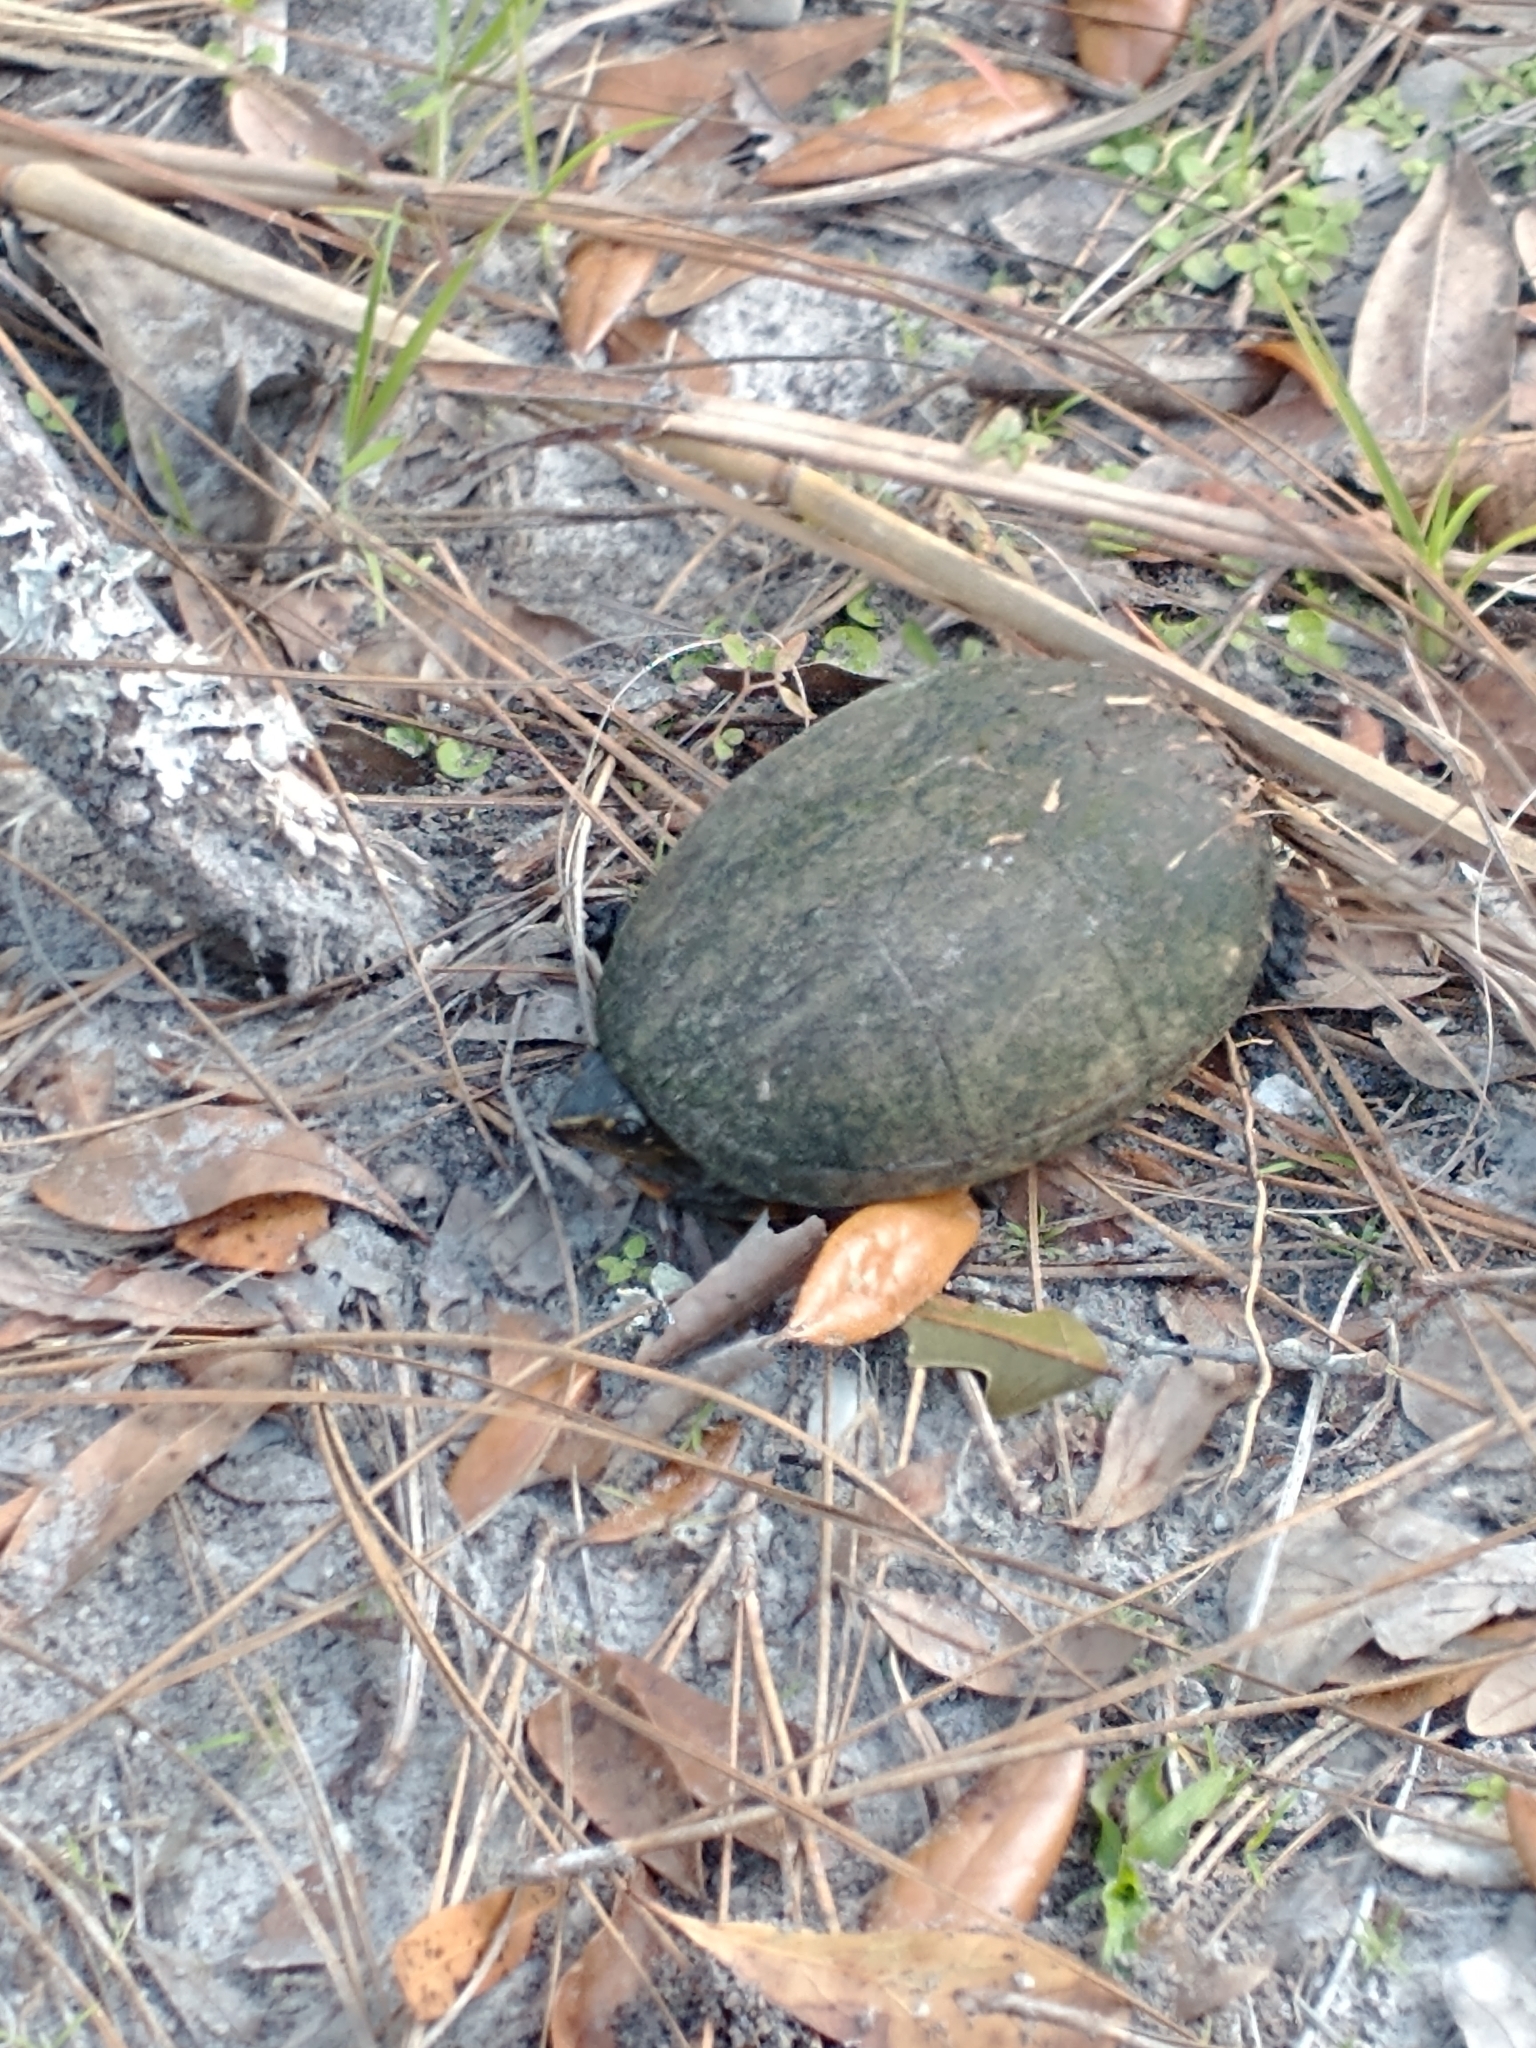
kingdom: Animalia
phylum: Chordata
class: Testudines
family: Kinosternidae
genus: Kinosternon
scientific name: Kinosternon baurii
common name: Striped mud turtle
